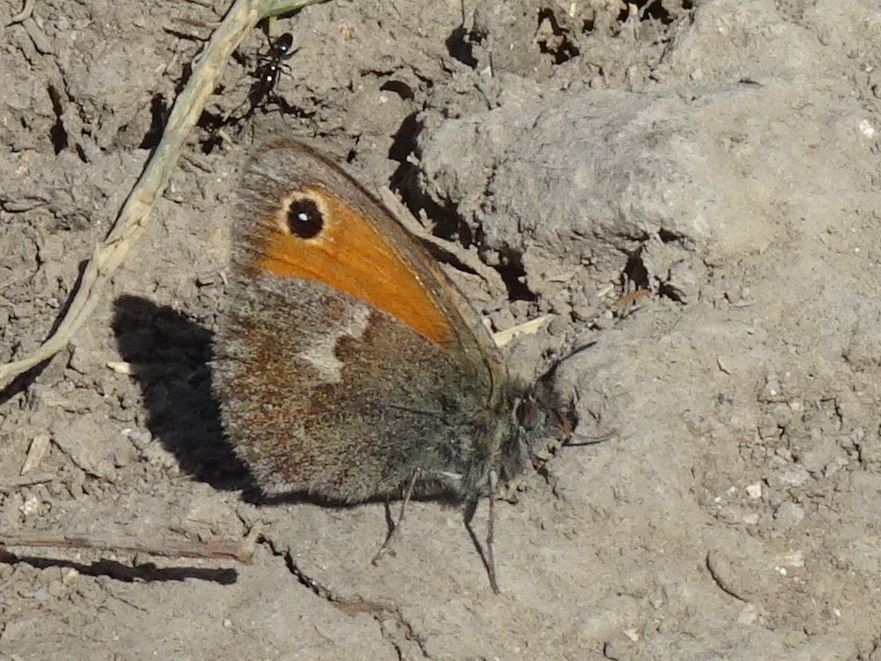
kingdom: Animalia
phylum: Arthropoda
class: Insecta
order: Lepidoptera
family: Nymphalidae
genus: Coenonympha
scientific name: Coenonympha pamphilus
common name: Small heath
